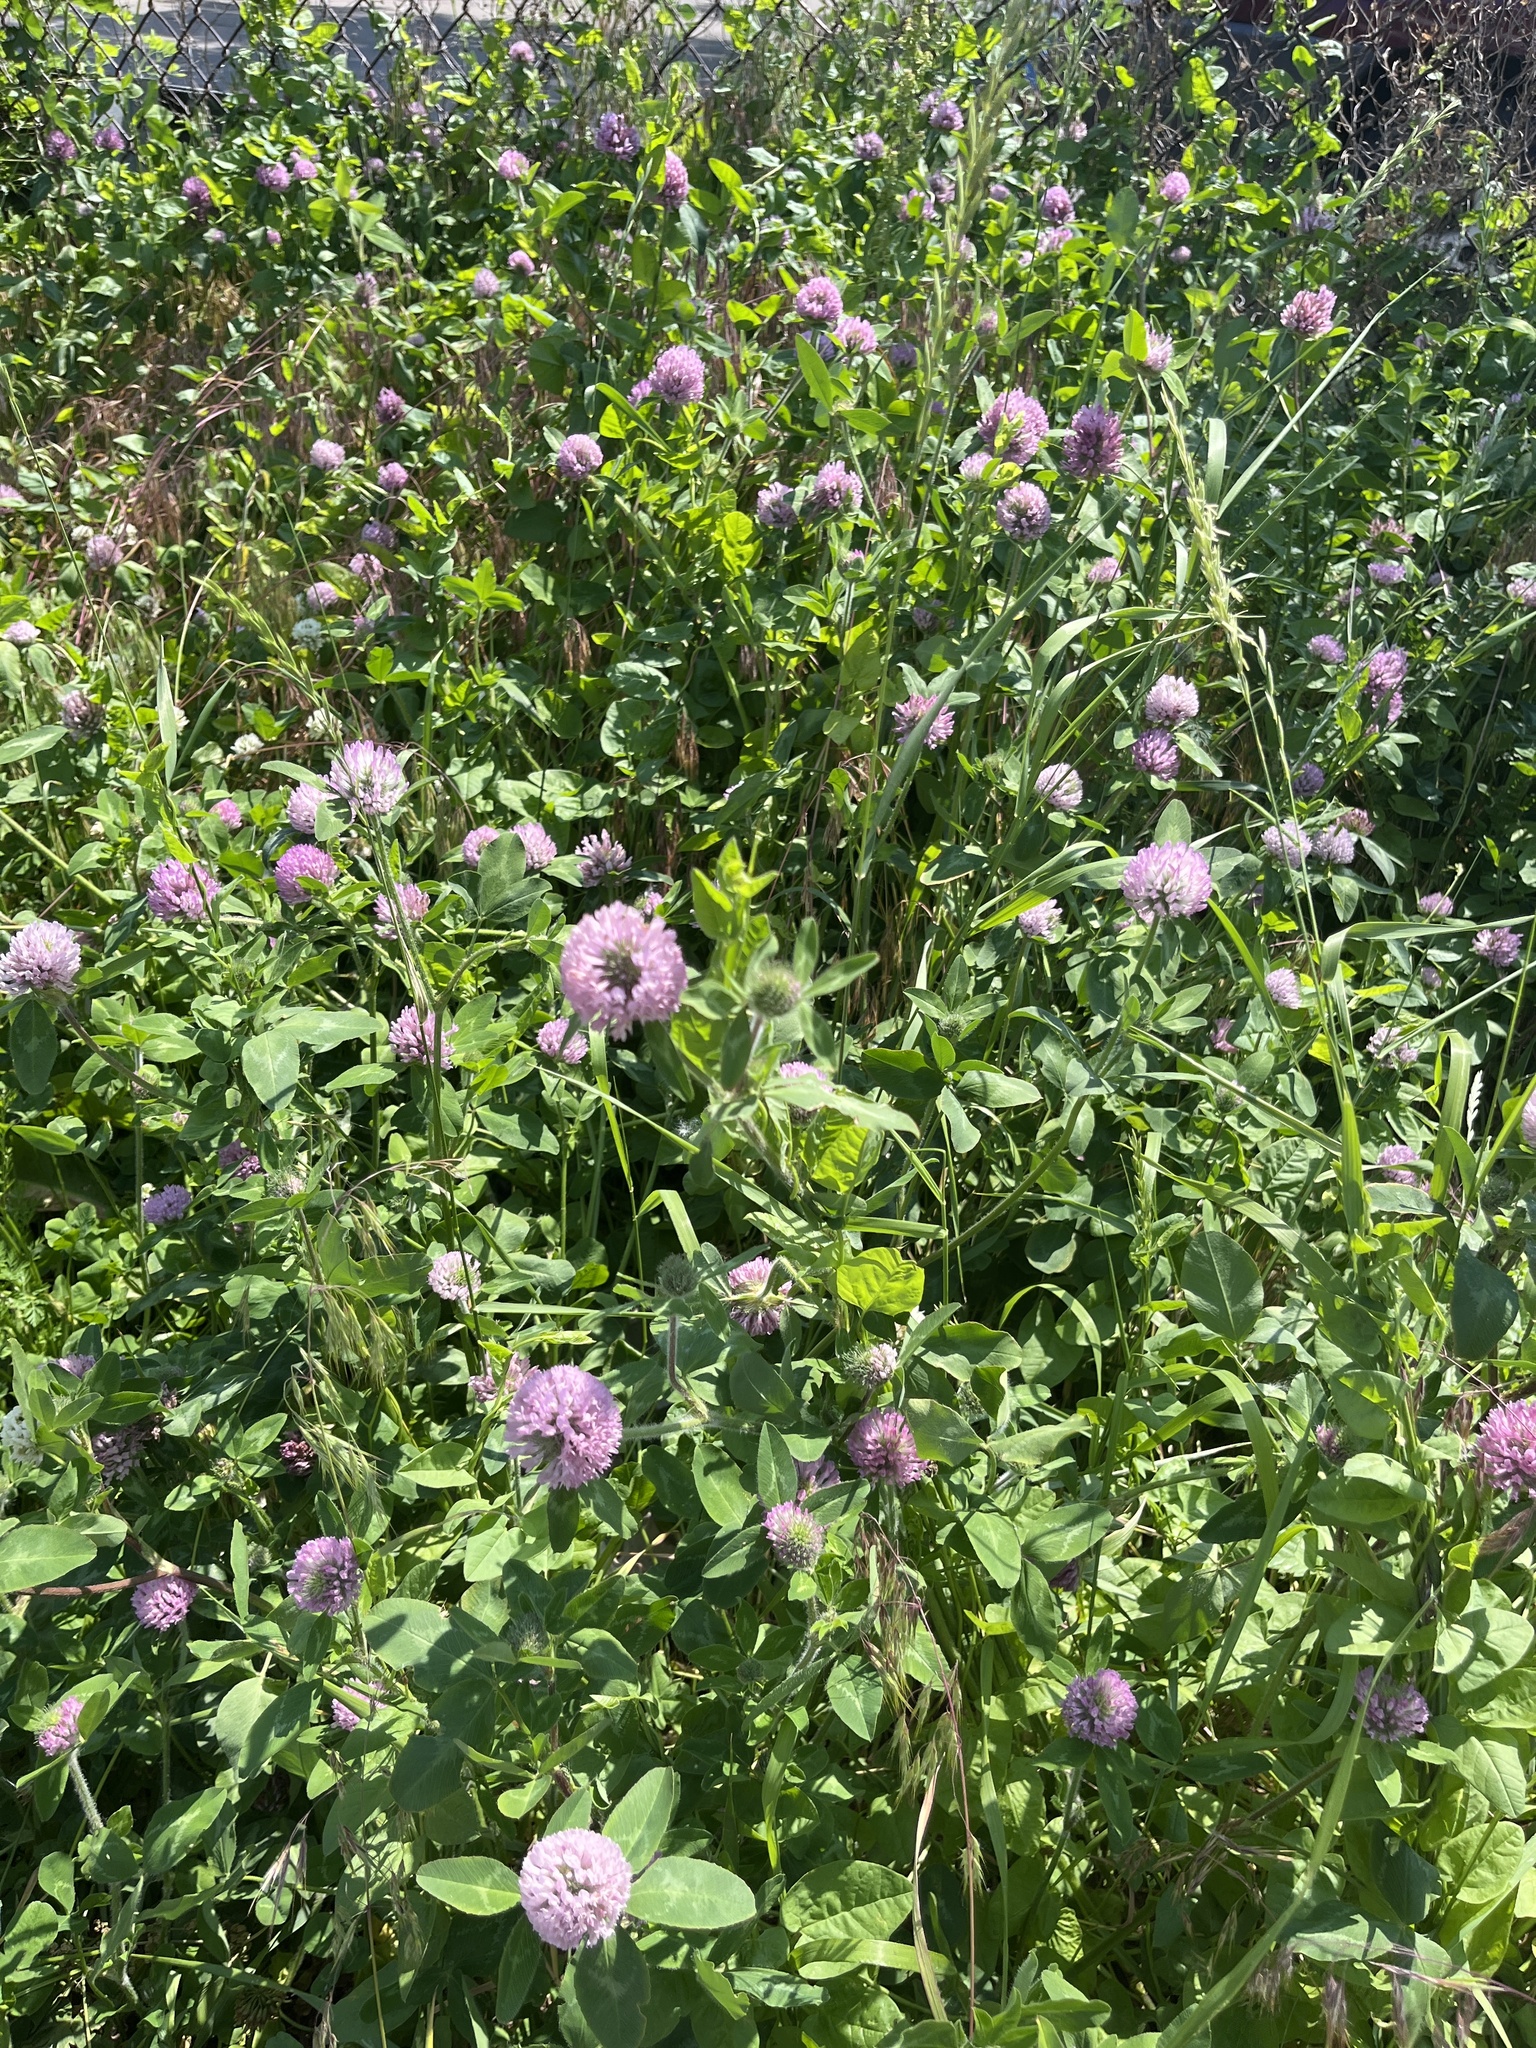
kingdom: Plantae
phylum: Tracheophyta
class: Magnoliopsida
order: Fabales
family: Fabaceae
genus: Trifolium
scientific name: Trifolium pratense
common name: Red clover
